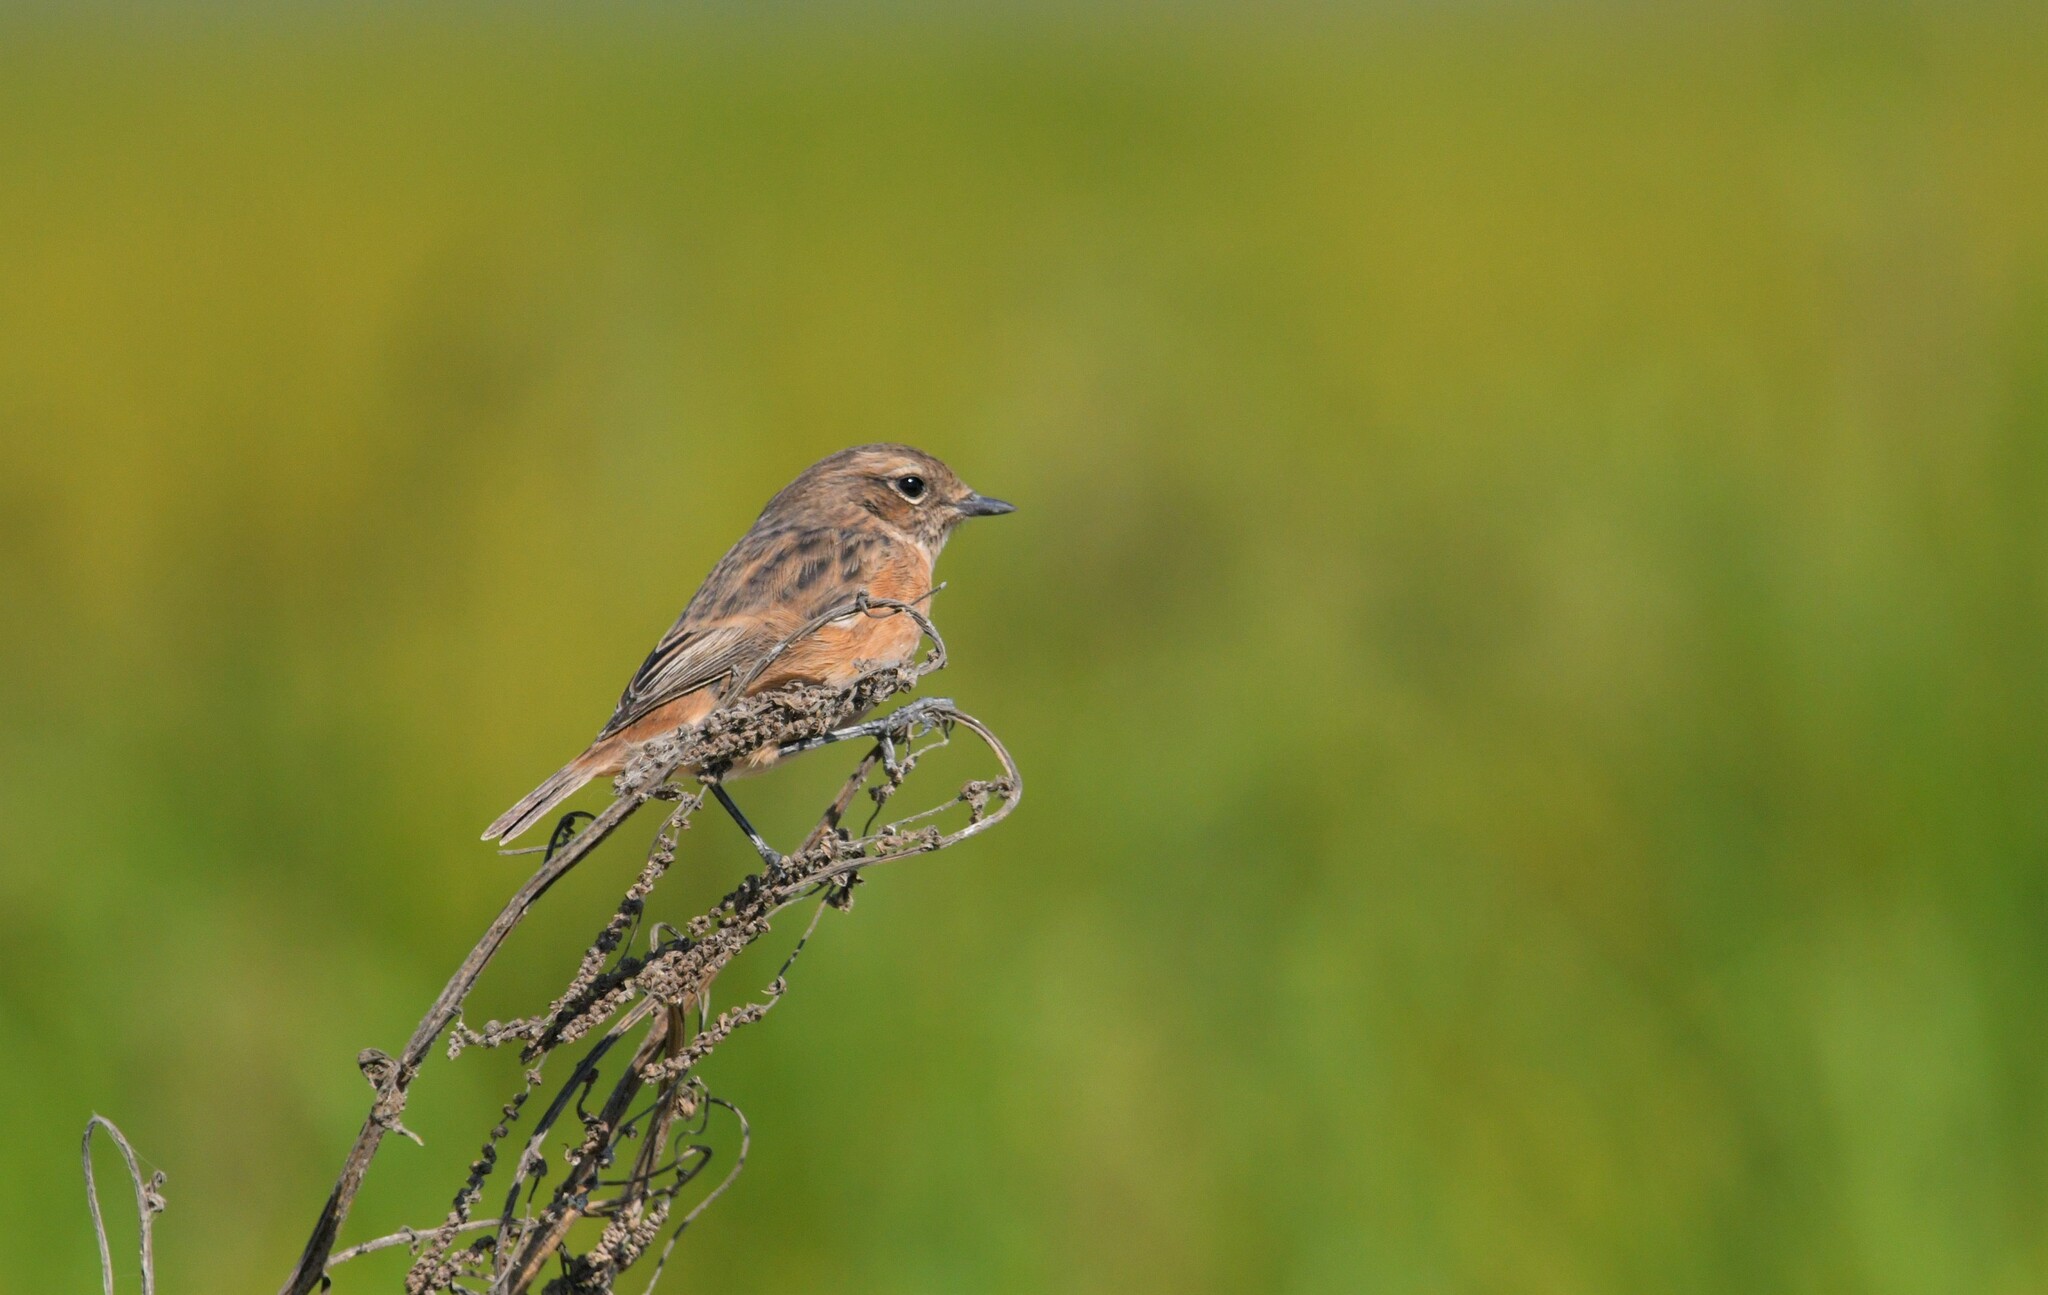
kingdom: Animalia
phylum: Chordata
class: Aves
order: Passeriformes
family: Muscicapidae
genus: Saxicola
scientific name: Saxicola rubicola
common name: European stonechat
